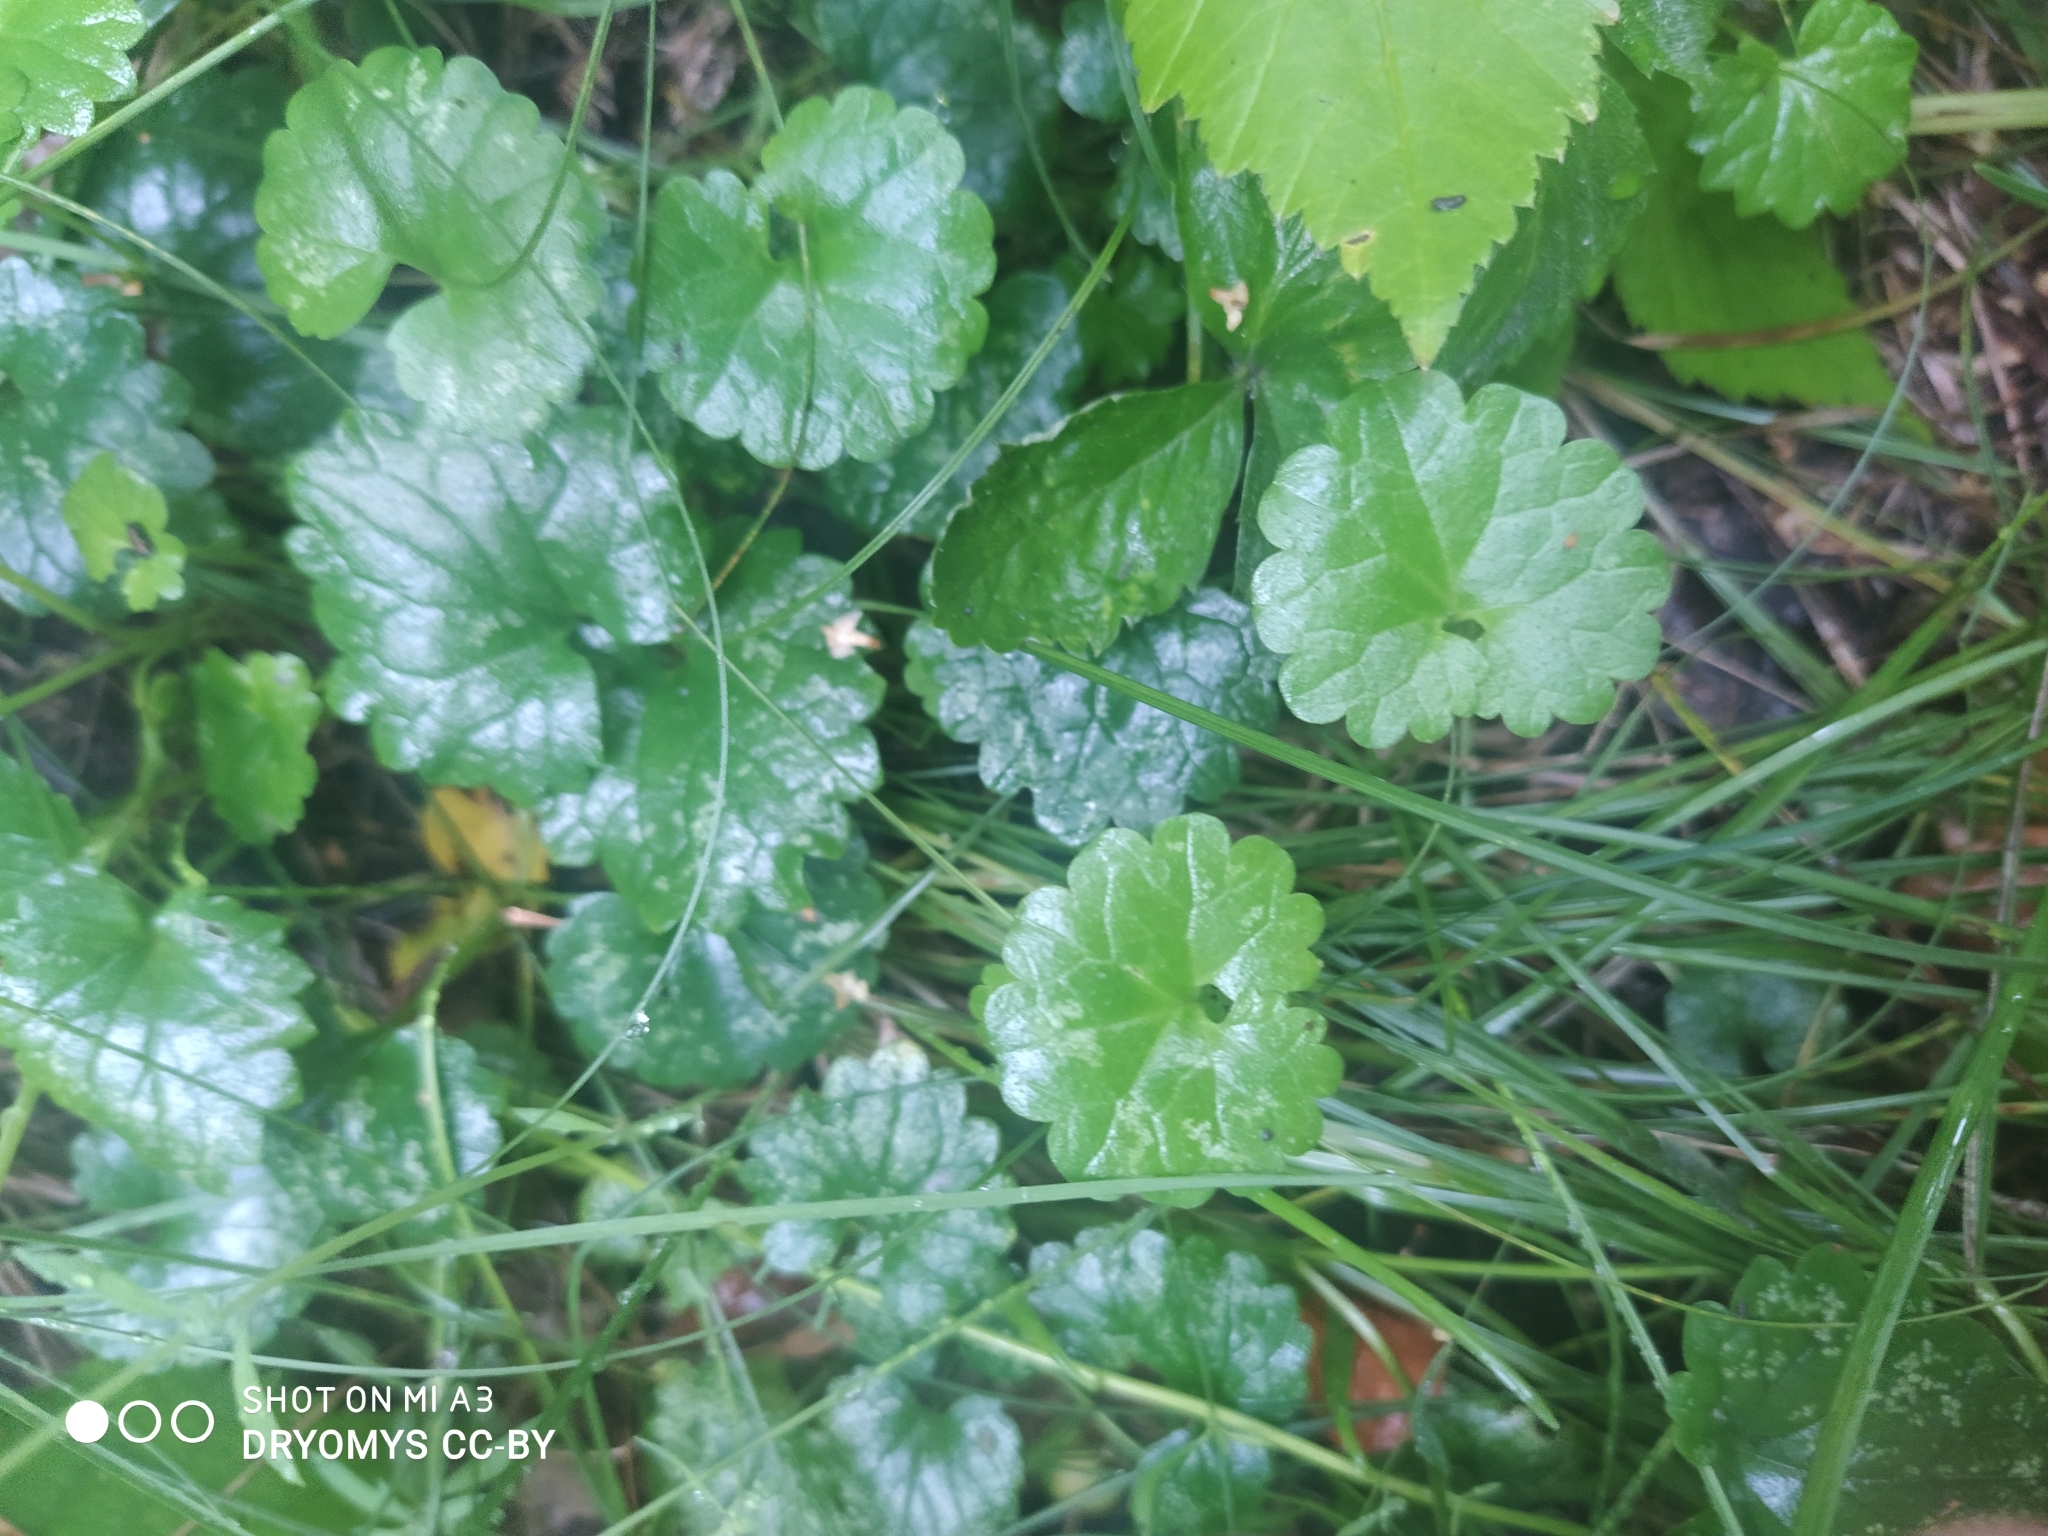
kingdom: Plantae
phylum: Tracheophyta
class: Magnoliopsida
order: Lamiales
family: Lamiaceae
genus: Glechoma
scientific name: Glechoma hederacea
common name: Ground ivy
